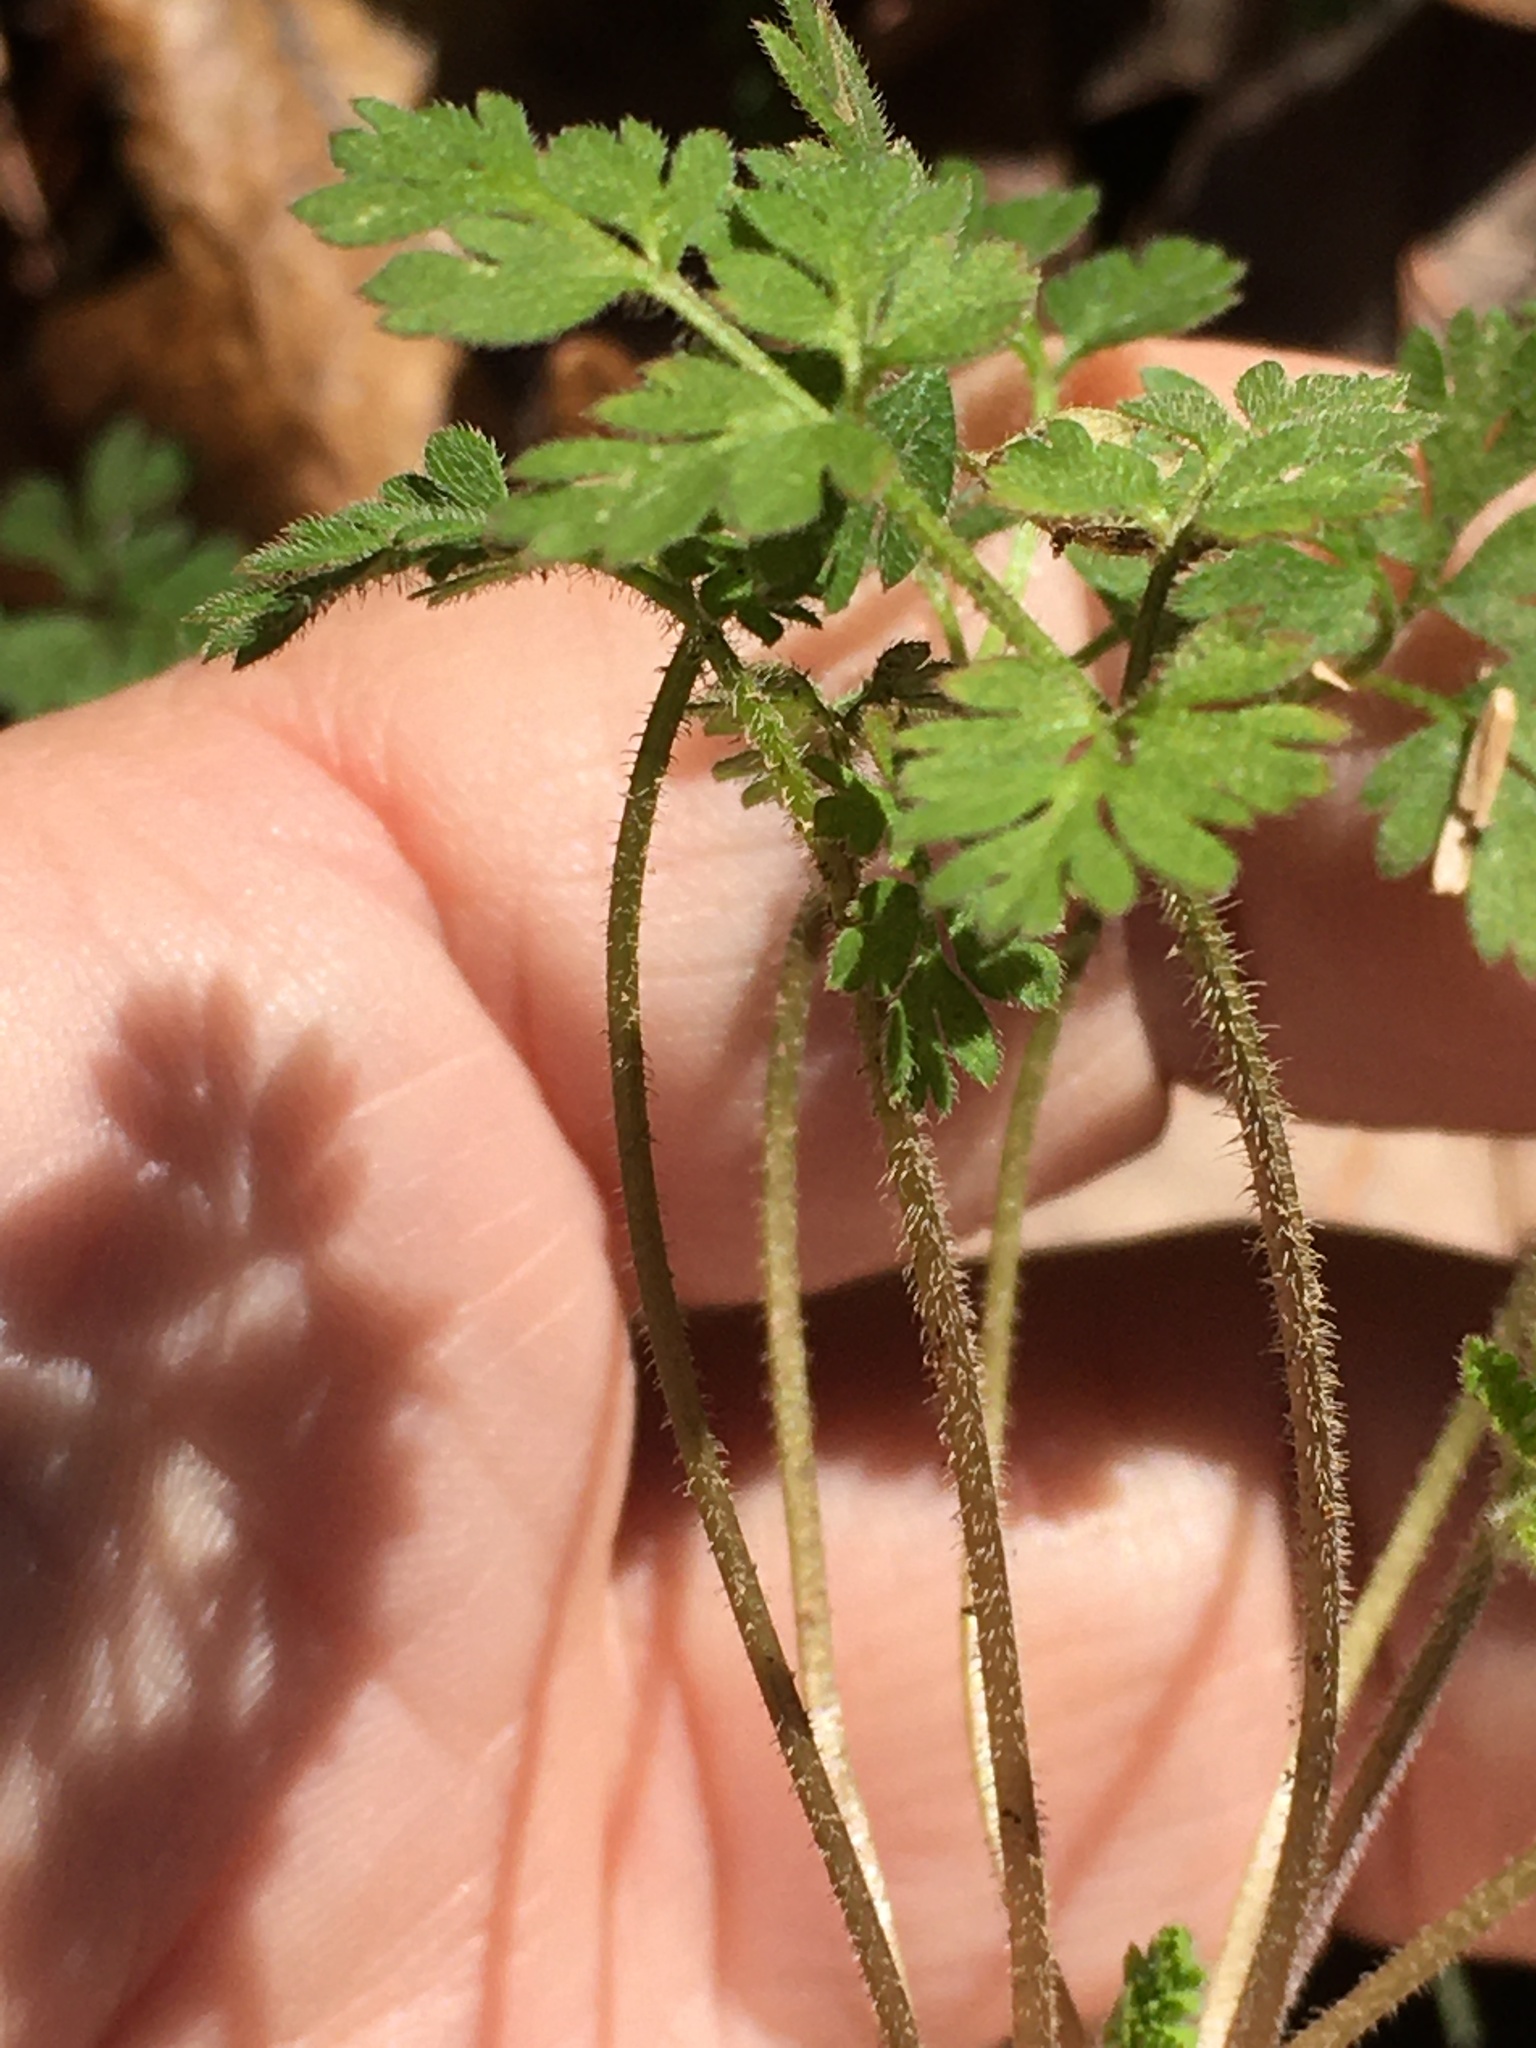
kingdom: Plantae
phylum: Tracheophyta
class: Magnoliopsida
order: Apiales
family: Apiaceae
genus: Chaerophyllum
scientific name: Chaerophyllum tainturieri
